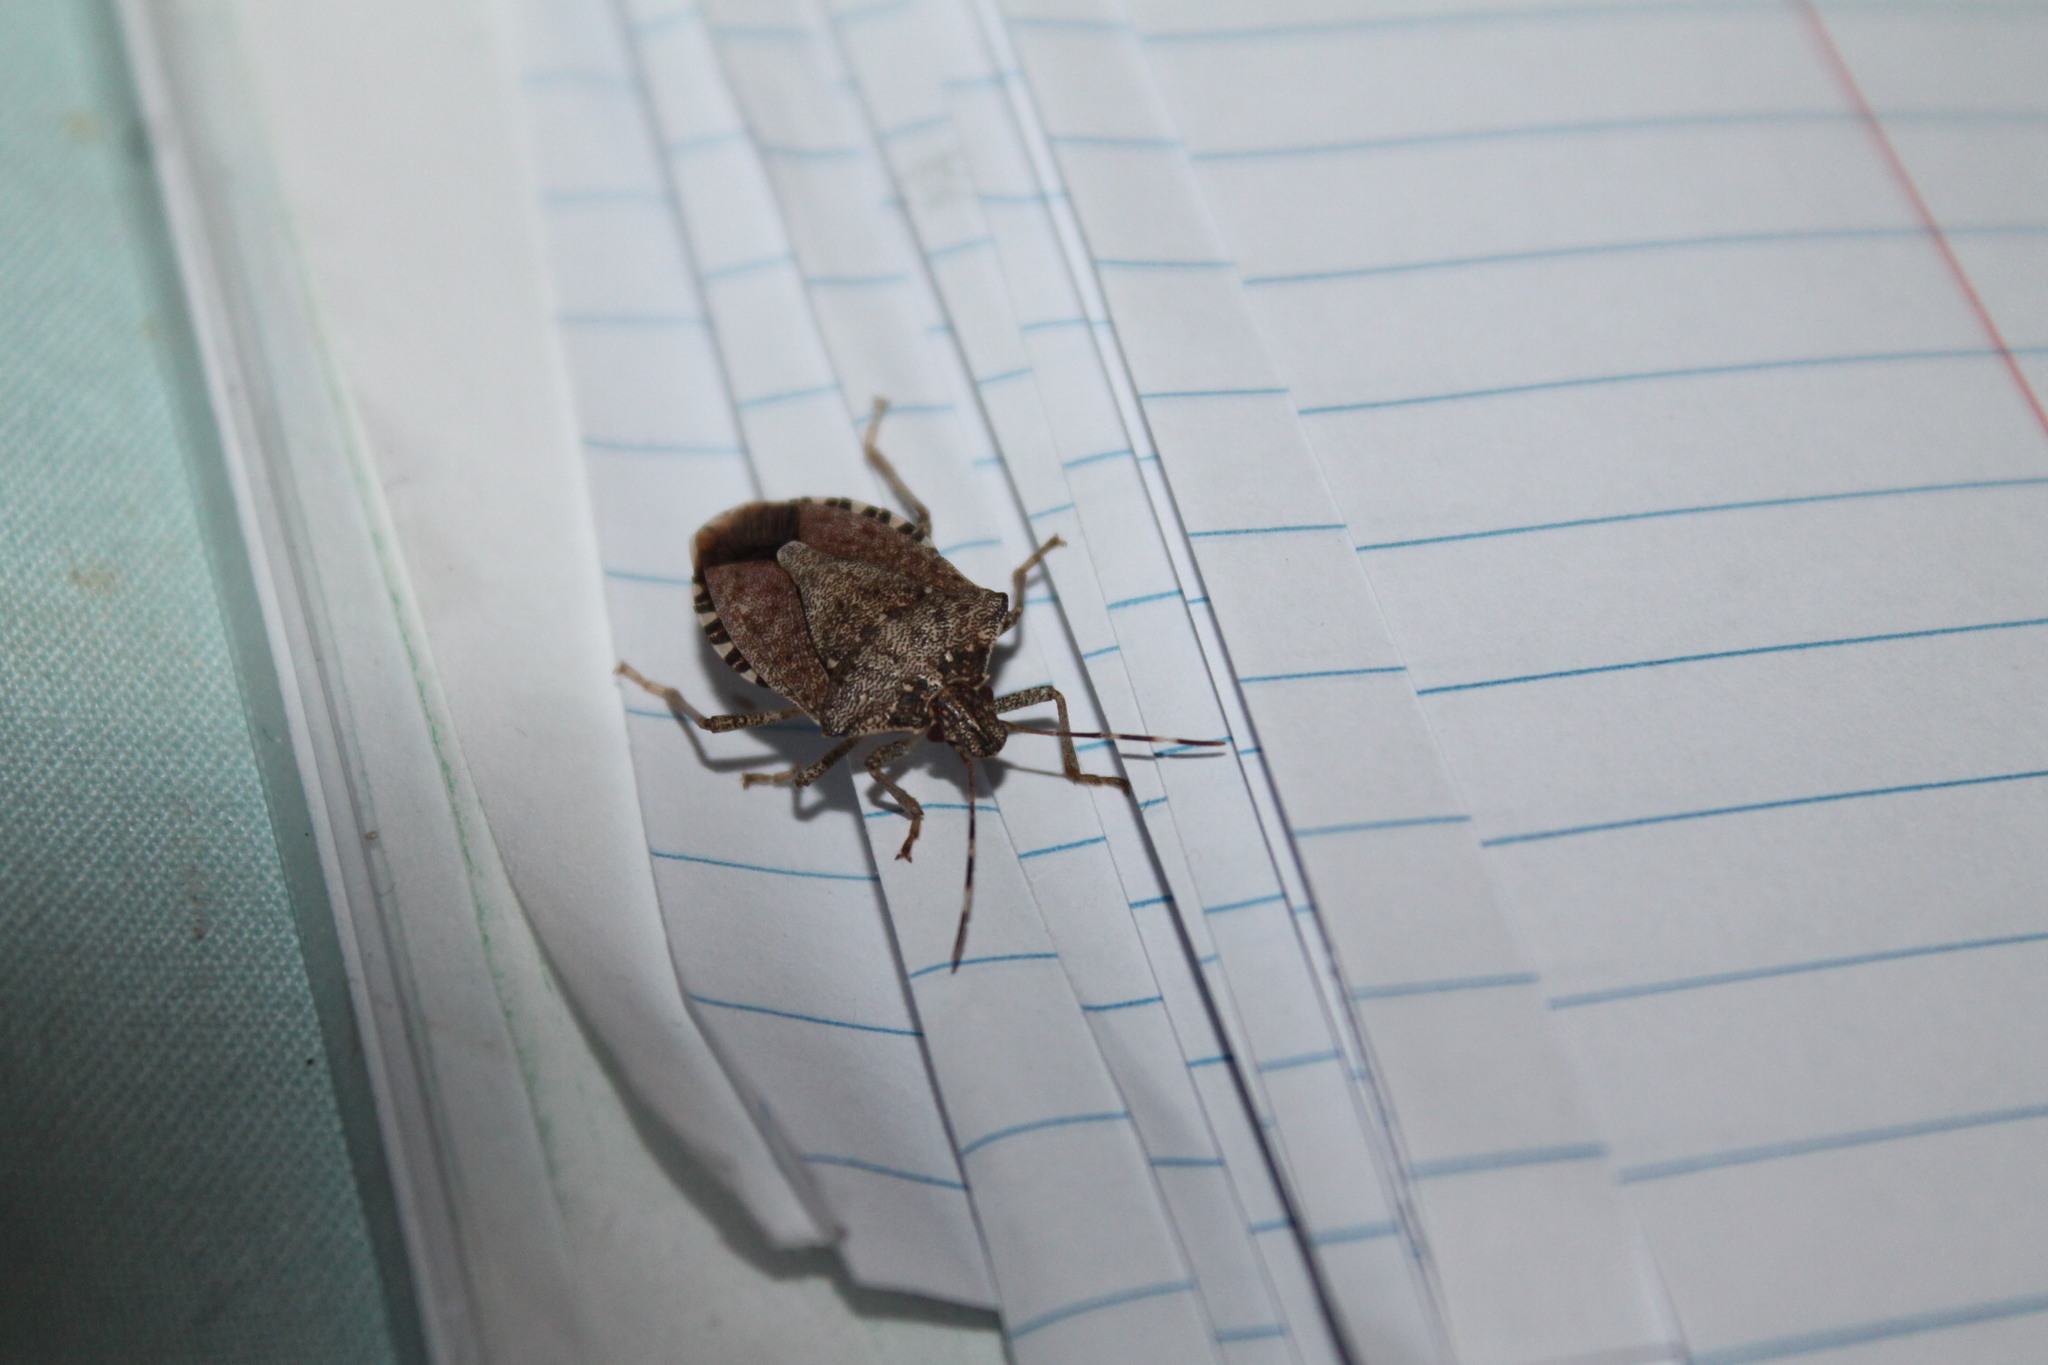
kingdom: Animalia
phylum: Arthropoda
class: Insecta
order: Hemiptera
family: Pentatomidae
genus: Halyomorpha
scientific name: Halyomorpha halys
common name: Brown marmorated stink bug
